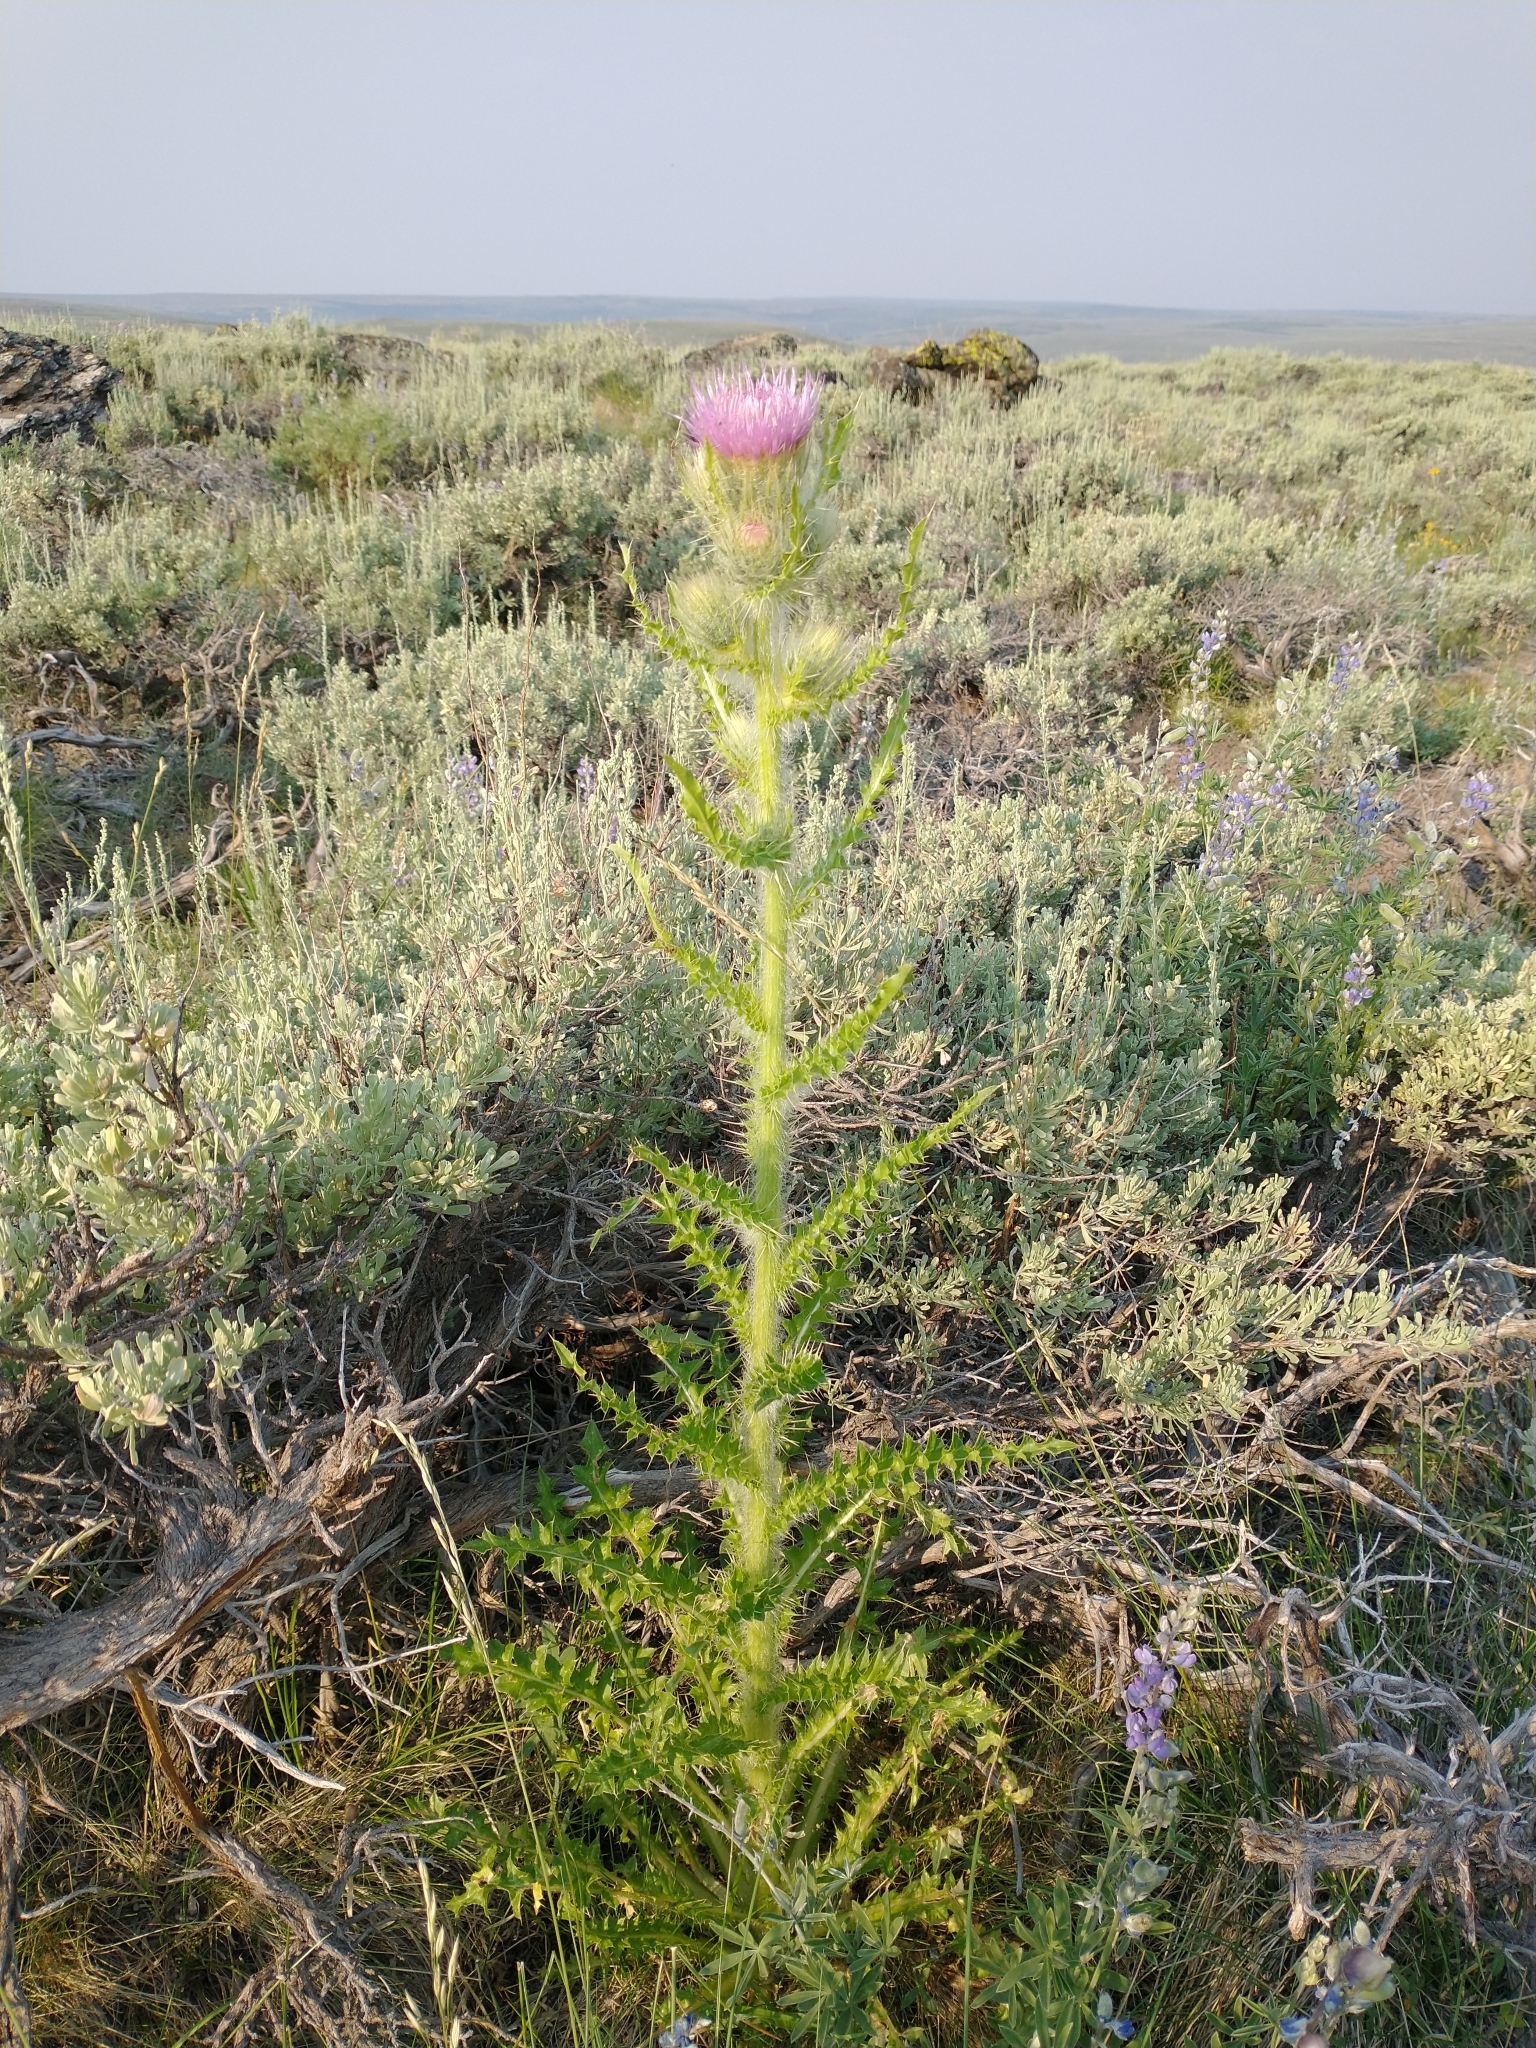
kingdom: Plantae
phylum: Tracheophyta
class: Magnoliopsida
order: Asterales
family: Asteraceae
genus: Cirsium
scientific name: Cirsium peckii
